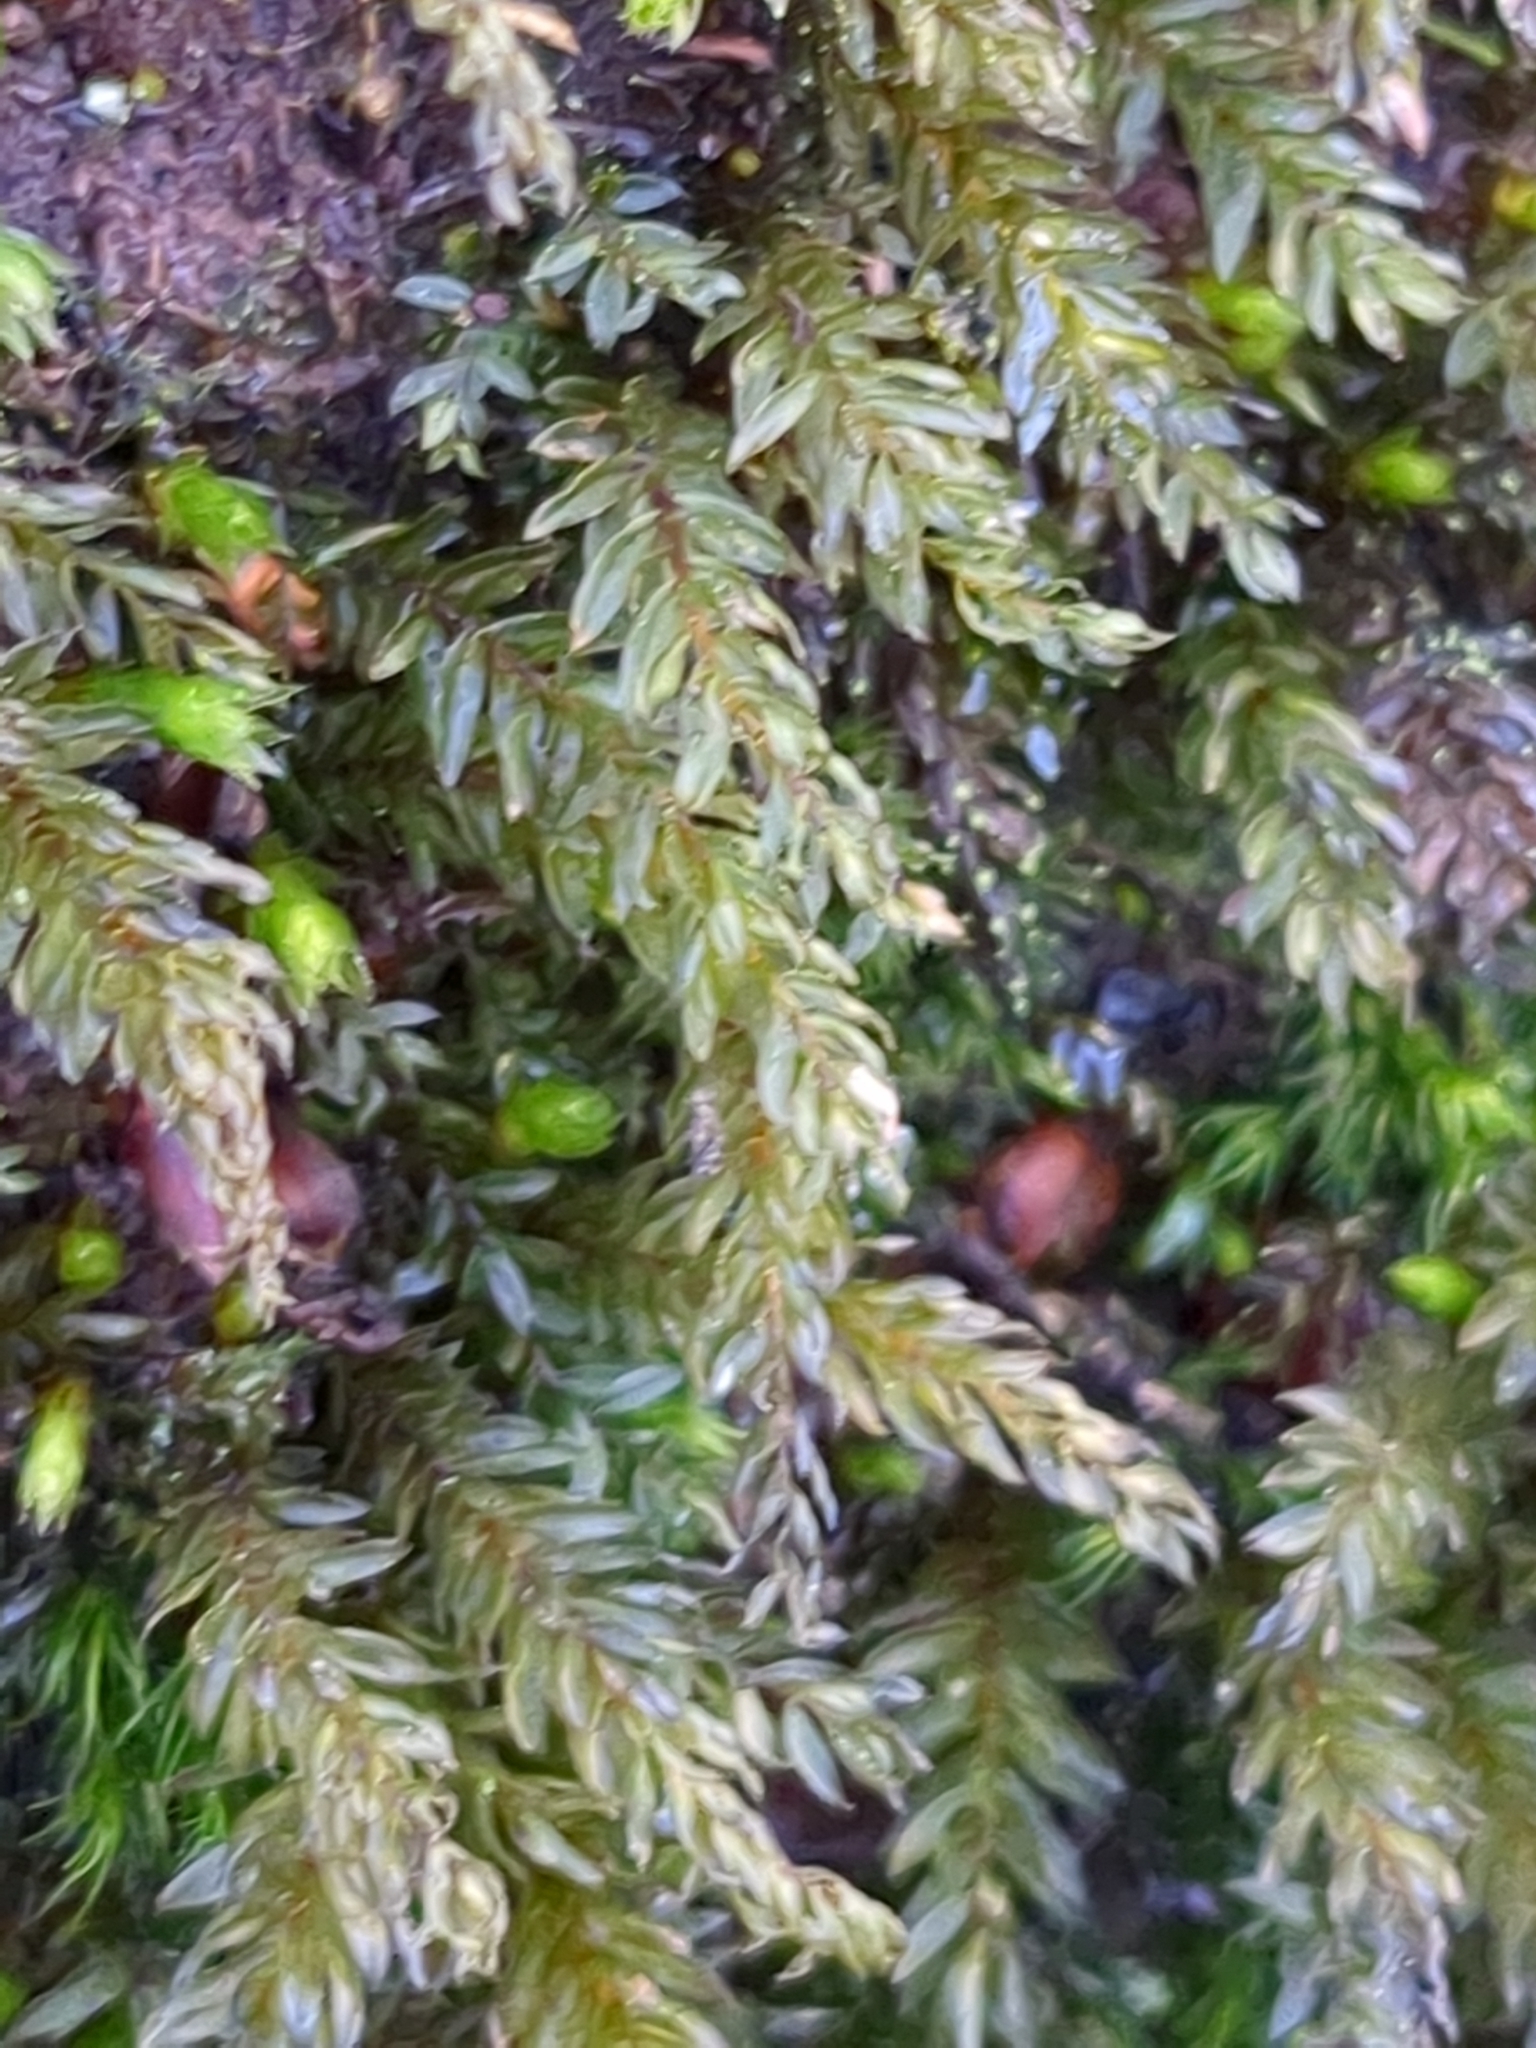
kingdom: Plantae
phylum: Bryophyta
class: Bryopsida
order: Bryales
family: Mniaceae
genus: Mnium
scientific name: Mnium hornum
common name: Swan's-neck leafy moss
